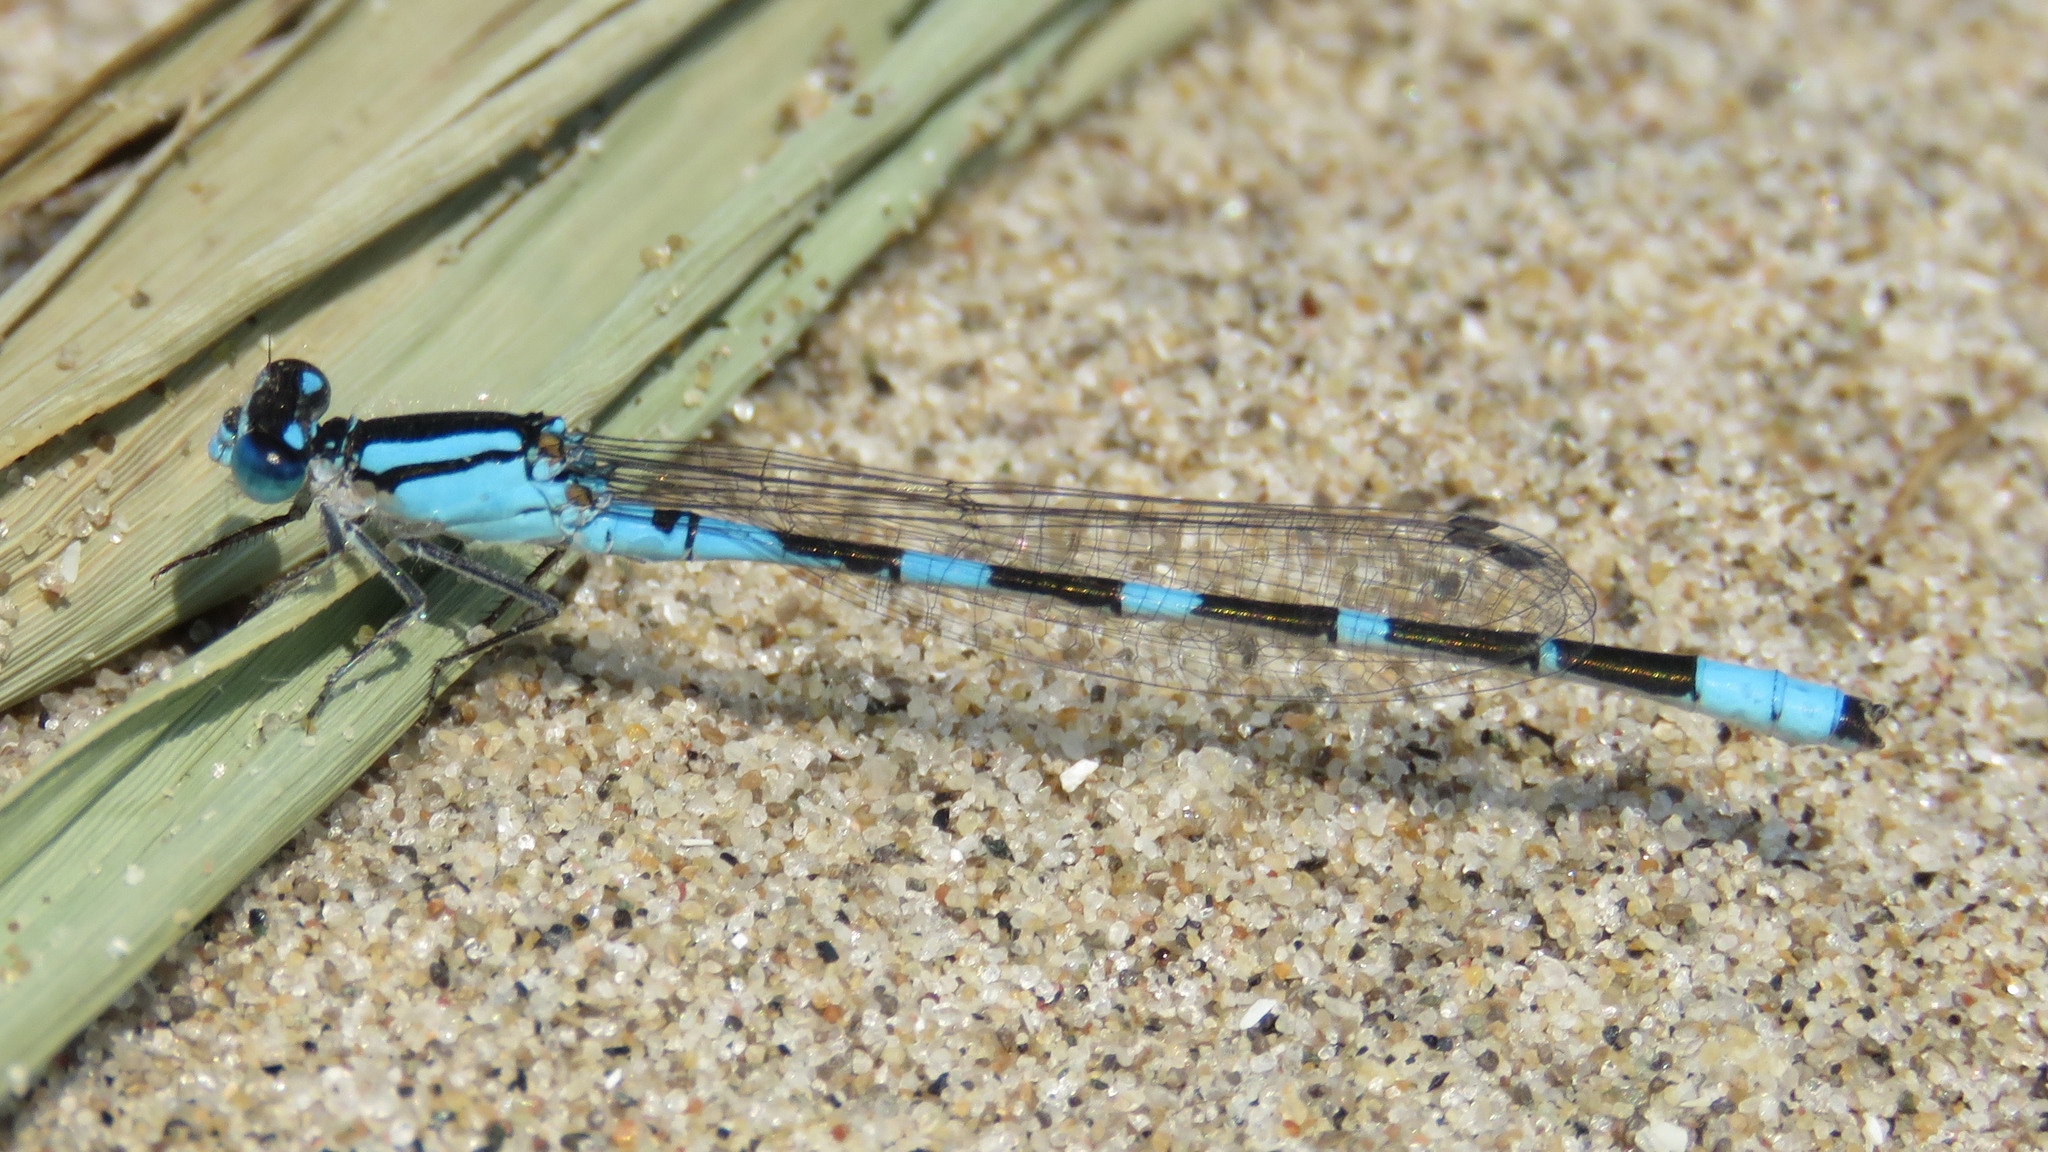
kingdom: Animalia
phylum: Arthropoda
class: Insecta
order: Odonata
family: Coenagrionidae
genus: Enallagma
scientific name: Enallagma carunculatum
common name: Tule bluet
